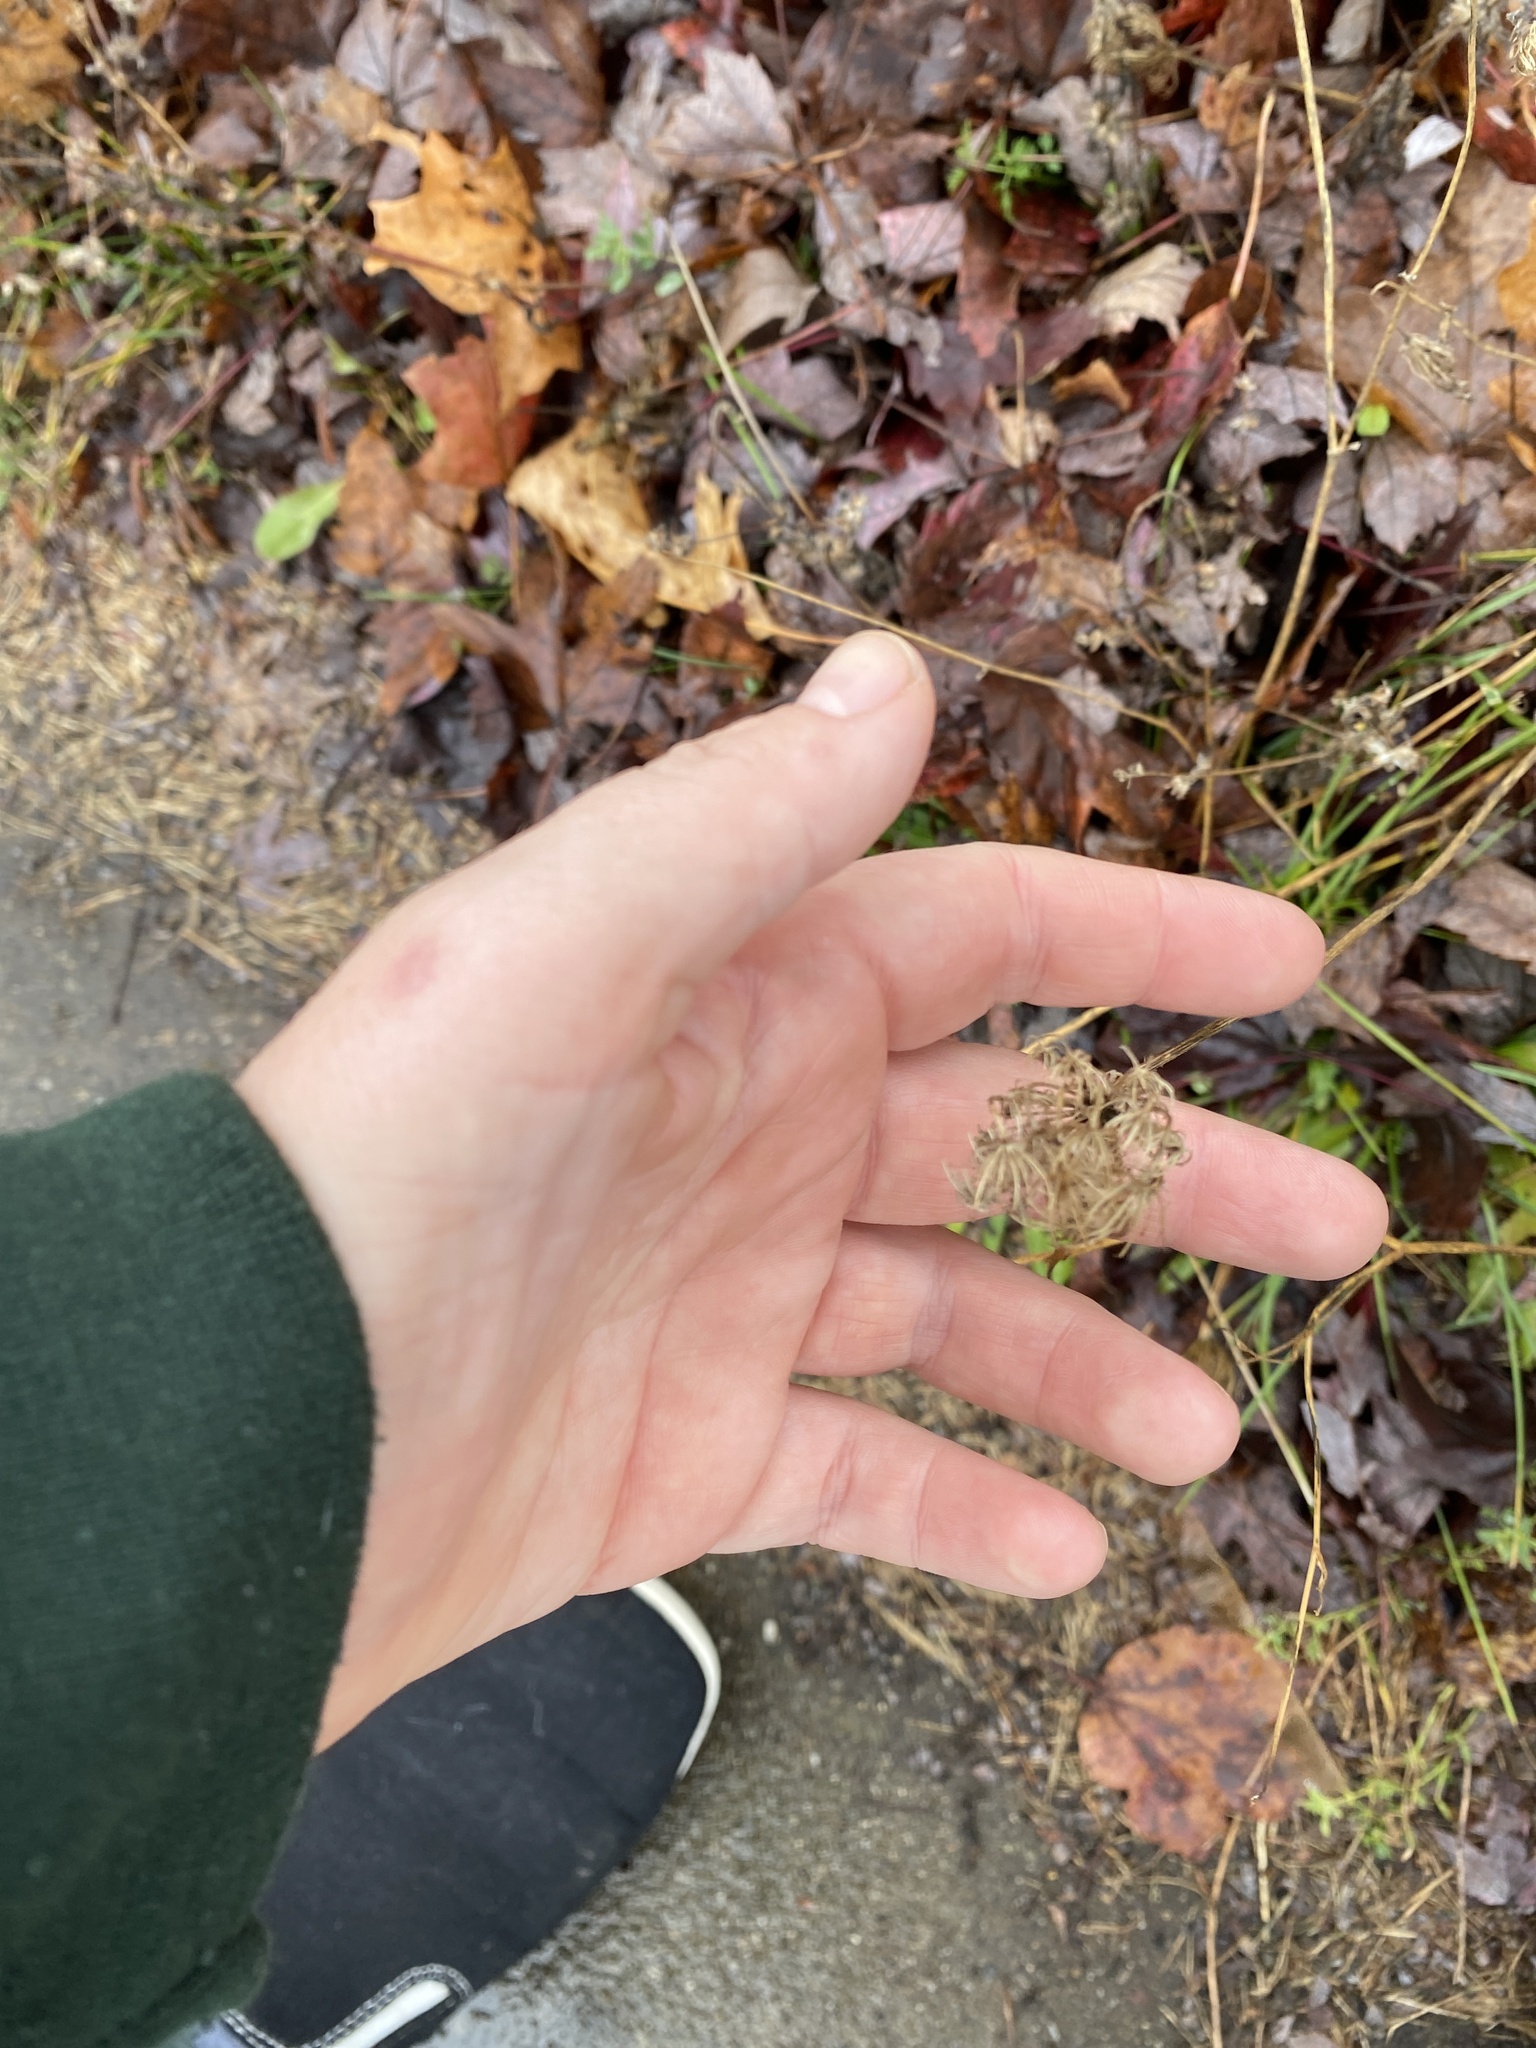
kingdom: Plantae
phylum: Tracheophyta
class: Magnoliopsida
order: Apiales
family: Apiaceae
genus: Daucus
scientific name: Daucus carota
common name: Wild carrot
